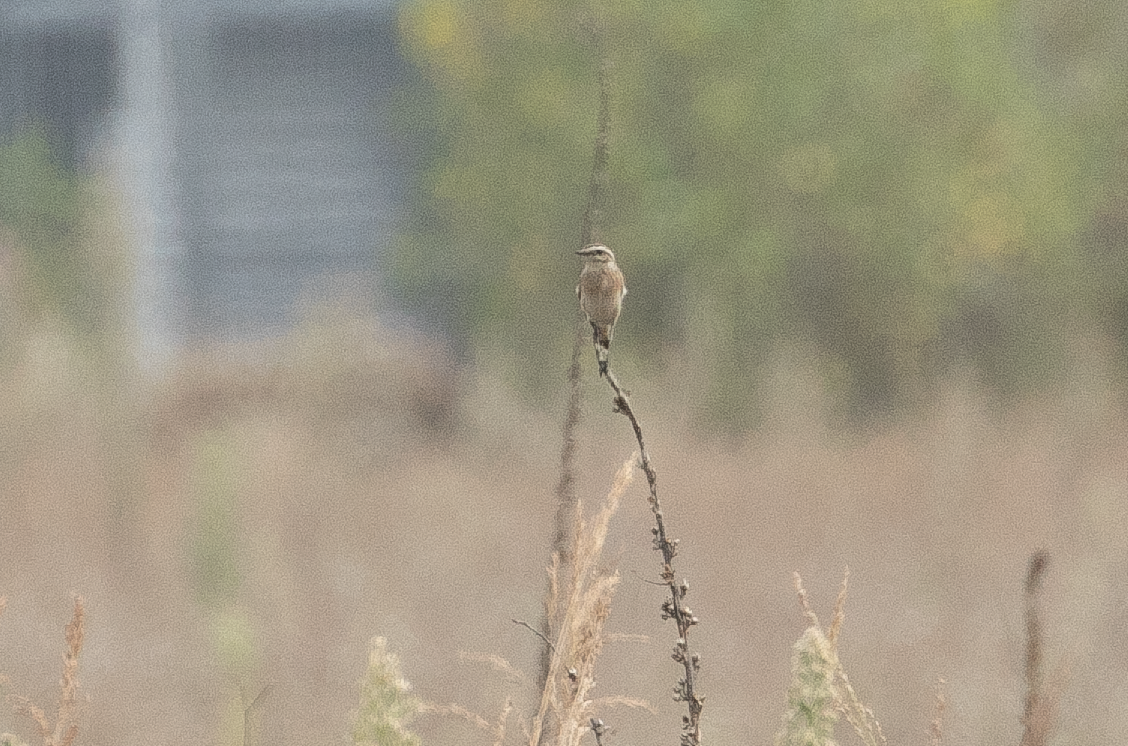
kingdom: Animalia
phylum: Chordata
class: Aves
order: Passeriformes
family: Muscicapidae
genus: Saxicola
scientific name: Saxicola rubetra
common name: Whinchat
